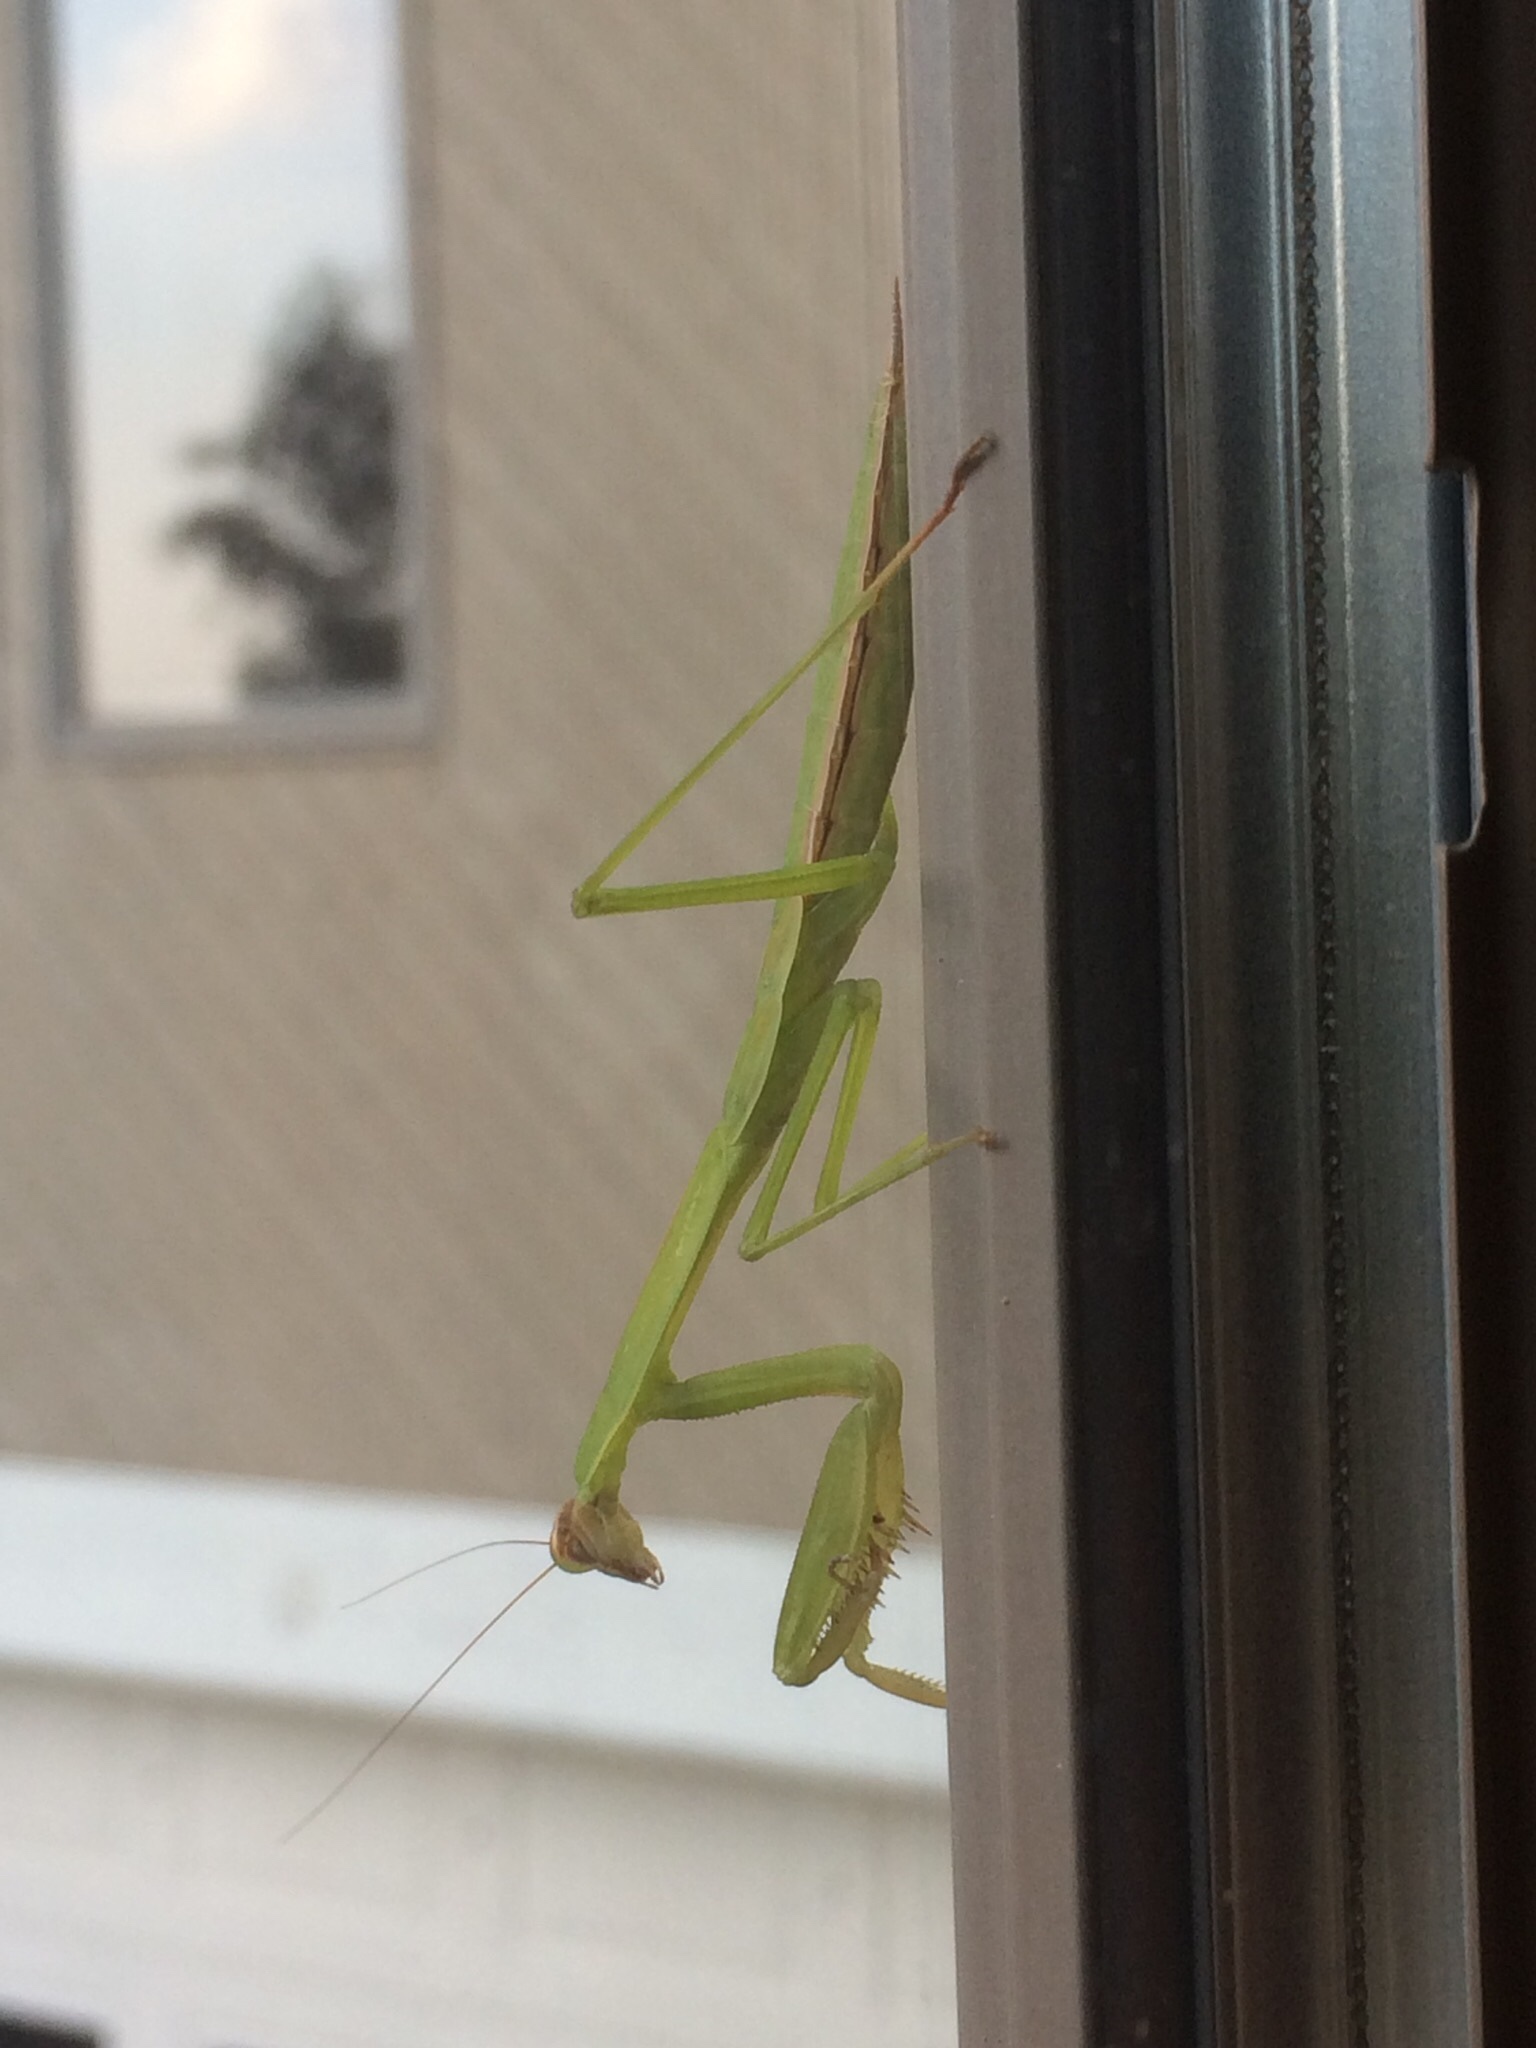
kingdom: Animalia
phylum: Arthropoda
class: Insecta
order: Mantodea
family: Mantidae
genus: Tenodera
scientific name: Tenodera sinensis
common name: Chinese mantis
